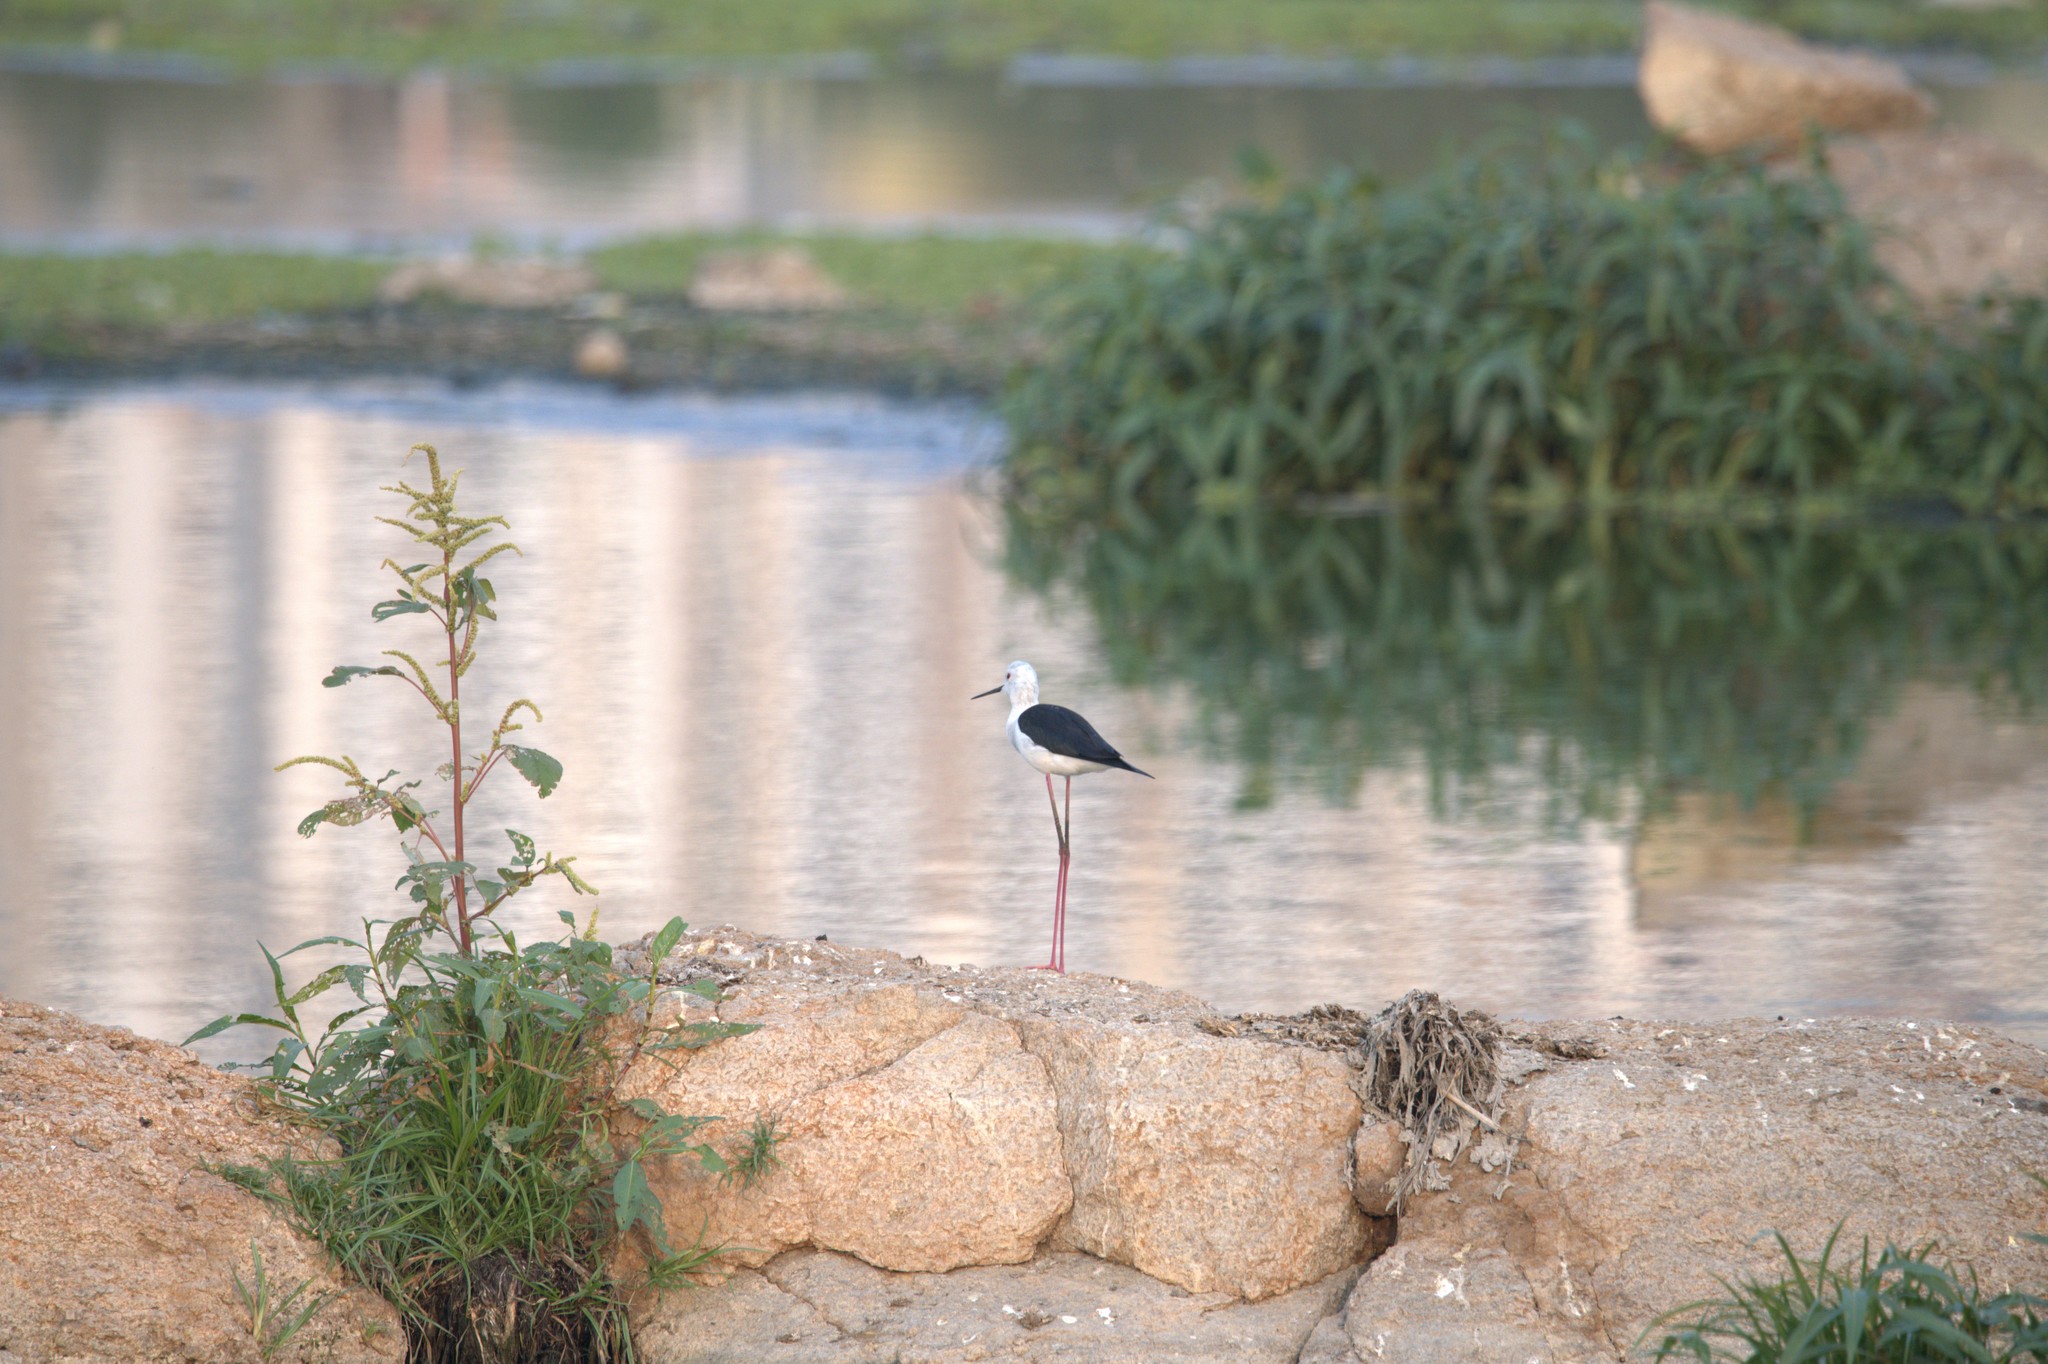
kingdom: Animalia
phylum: Chordata
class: Aves
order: Charadriiformes
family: Recurvirostridae
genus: Himantopus
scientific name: Himantopus himantopus
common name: Black-winged stilt
